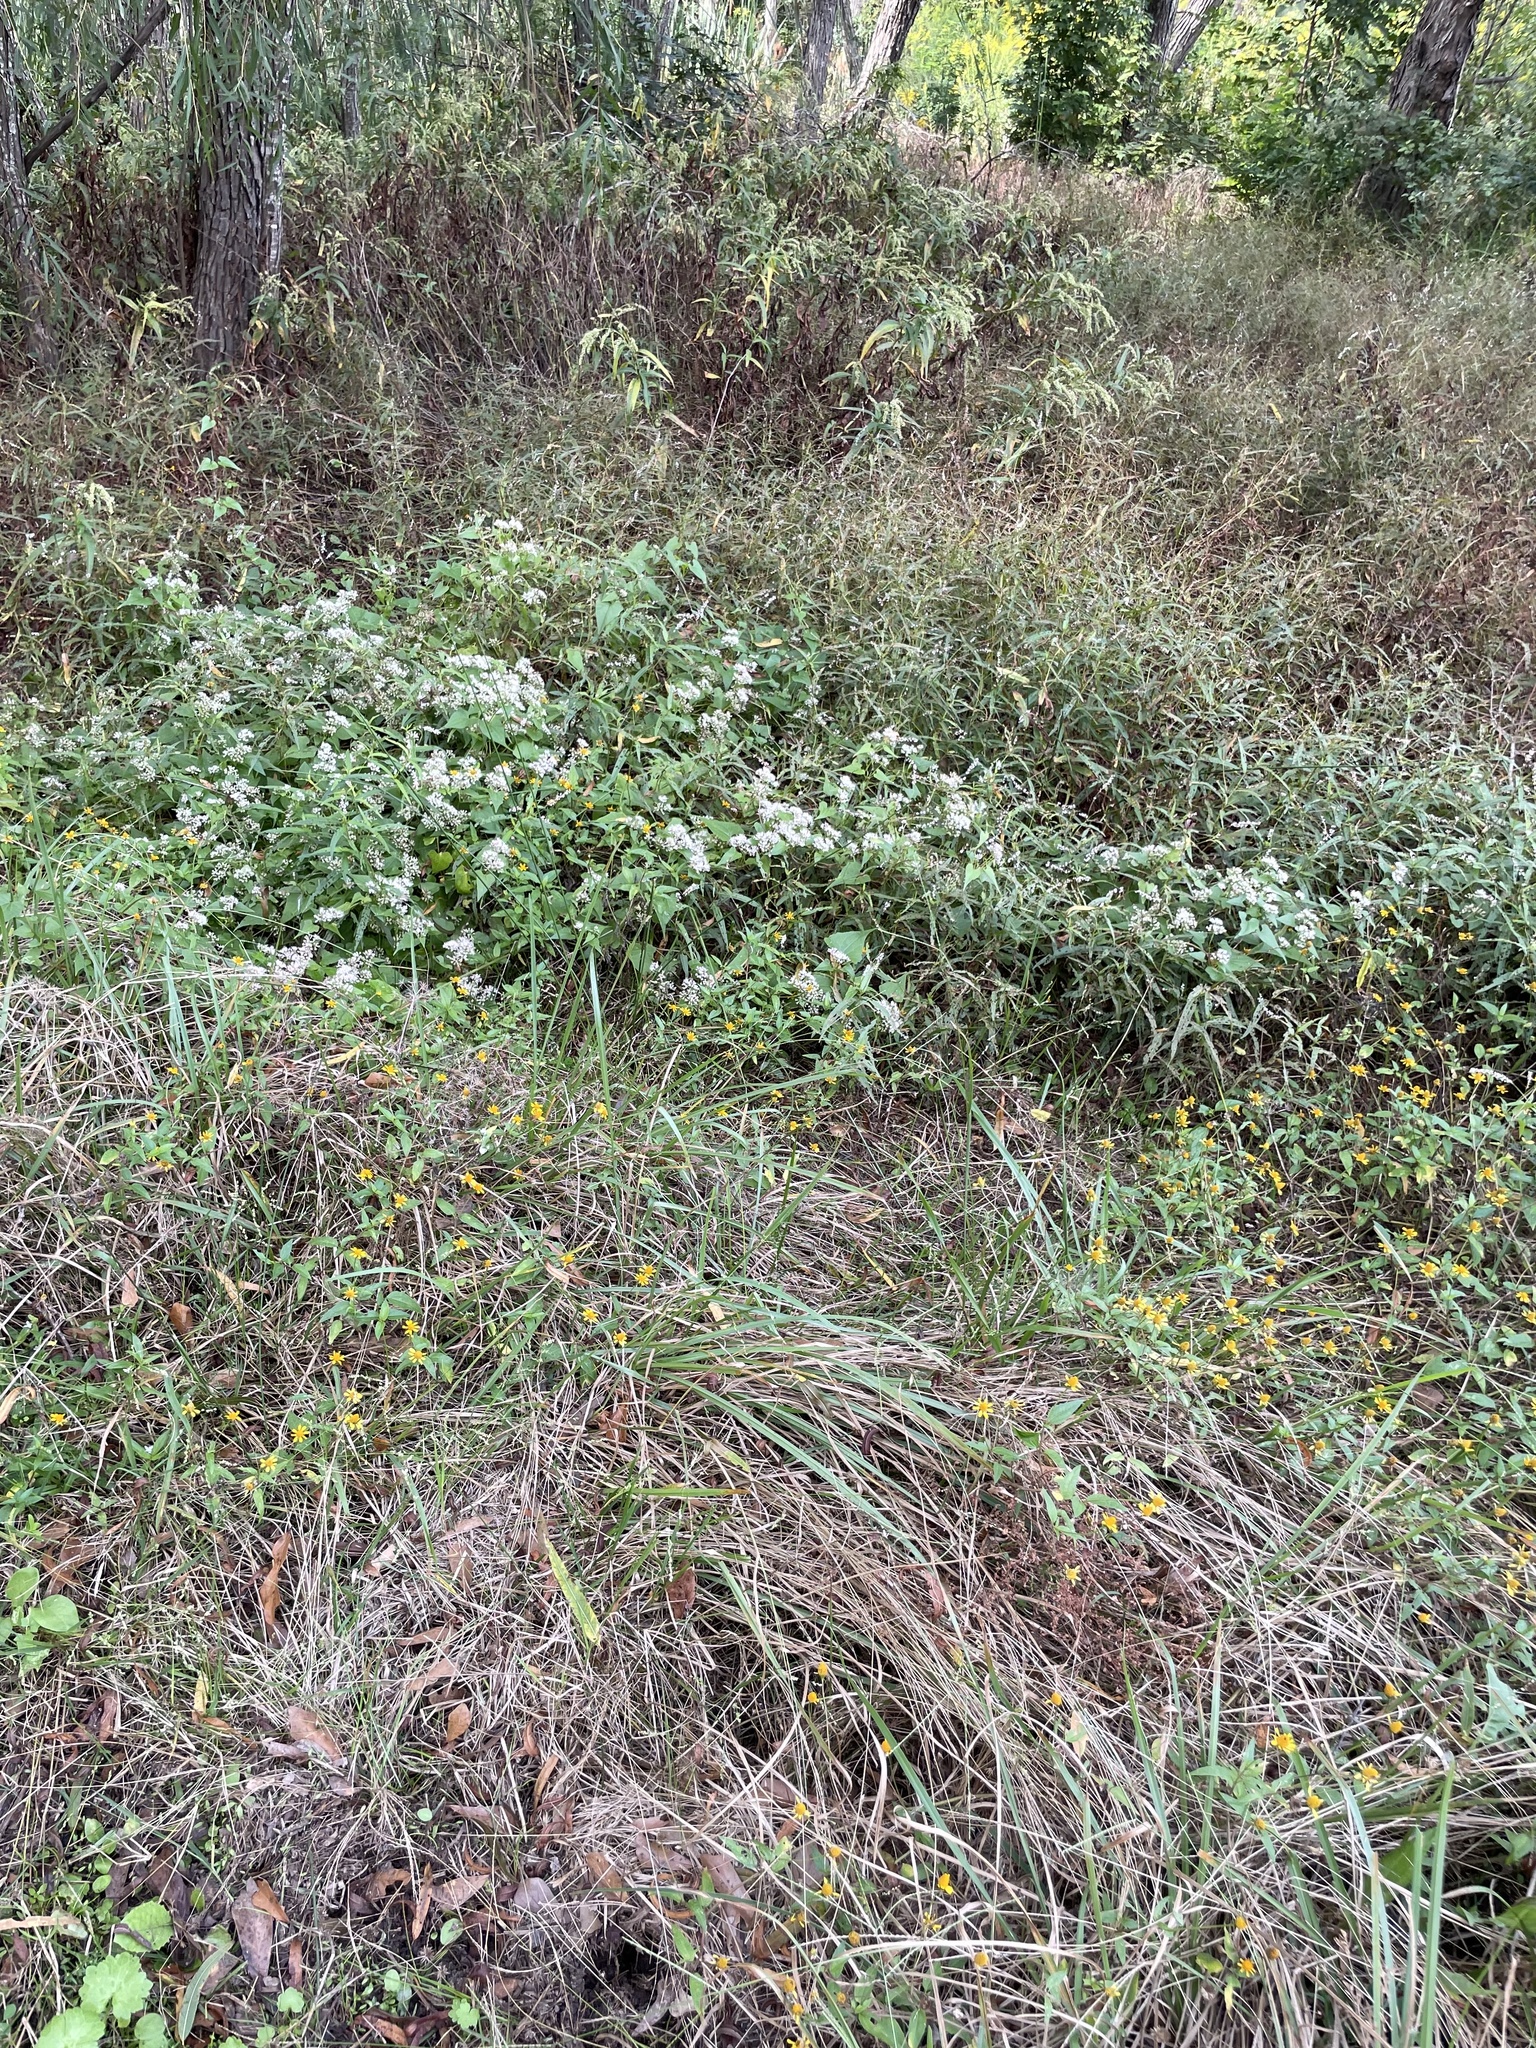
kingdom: Plantae
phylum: Tracheophyta
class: Magnoliopsida
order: Asterales
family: Asteraceae
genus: Mikania
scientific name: Mikania scandens
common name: Climbing hempvine
